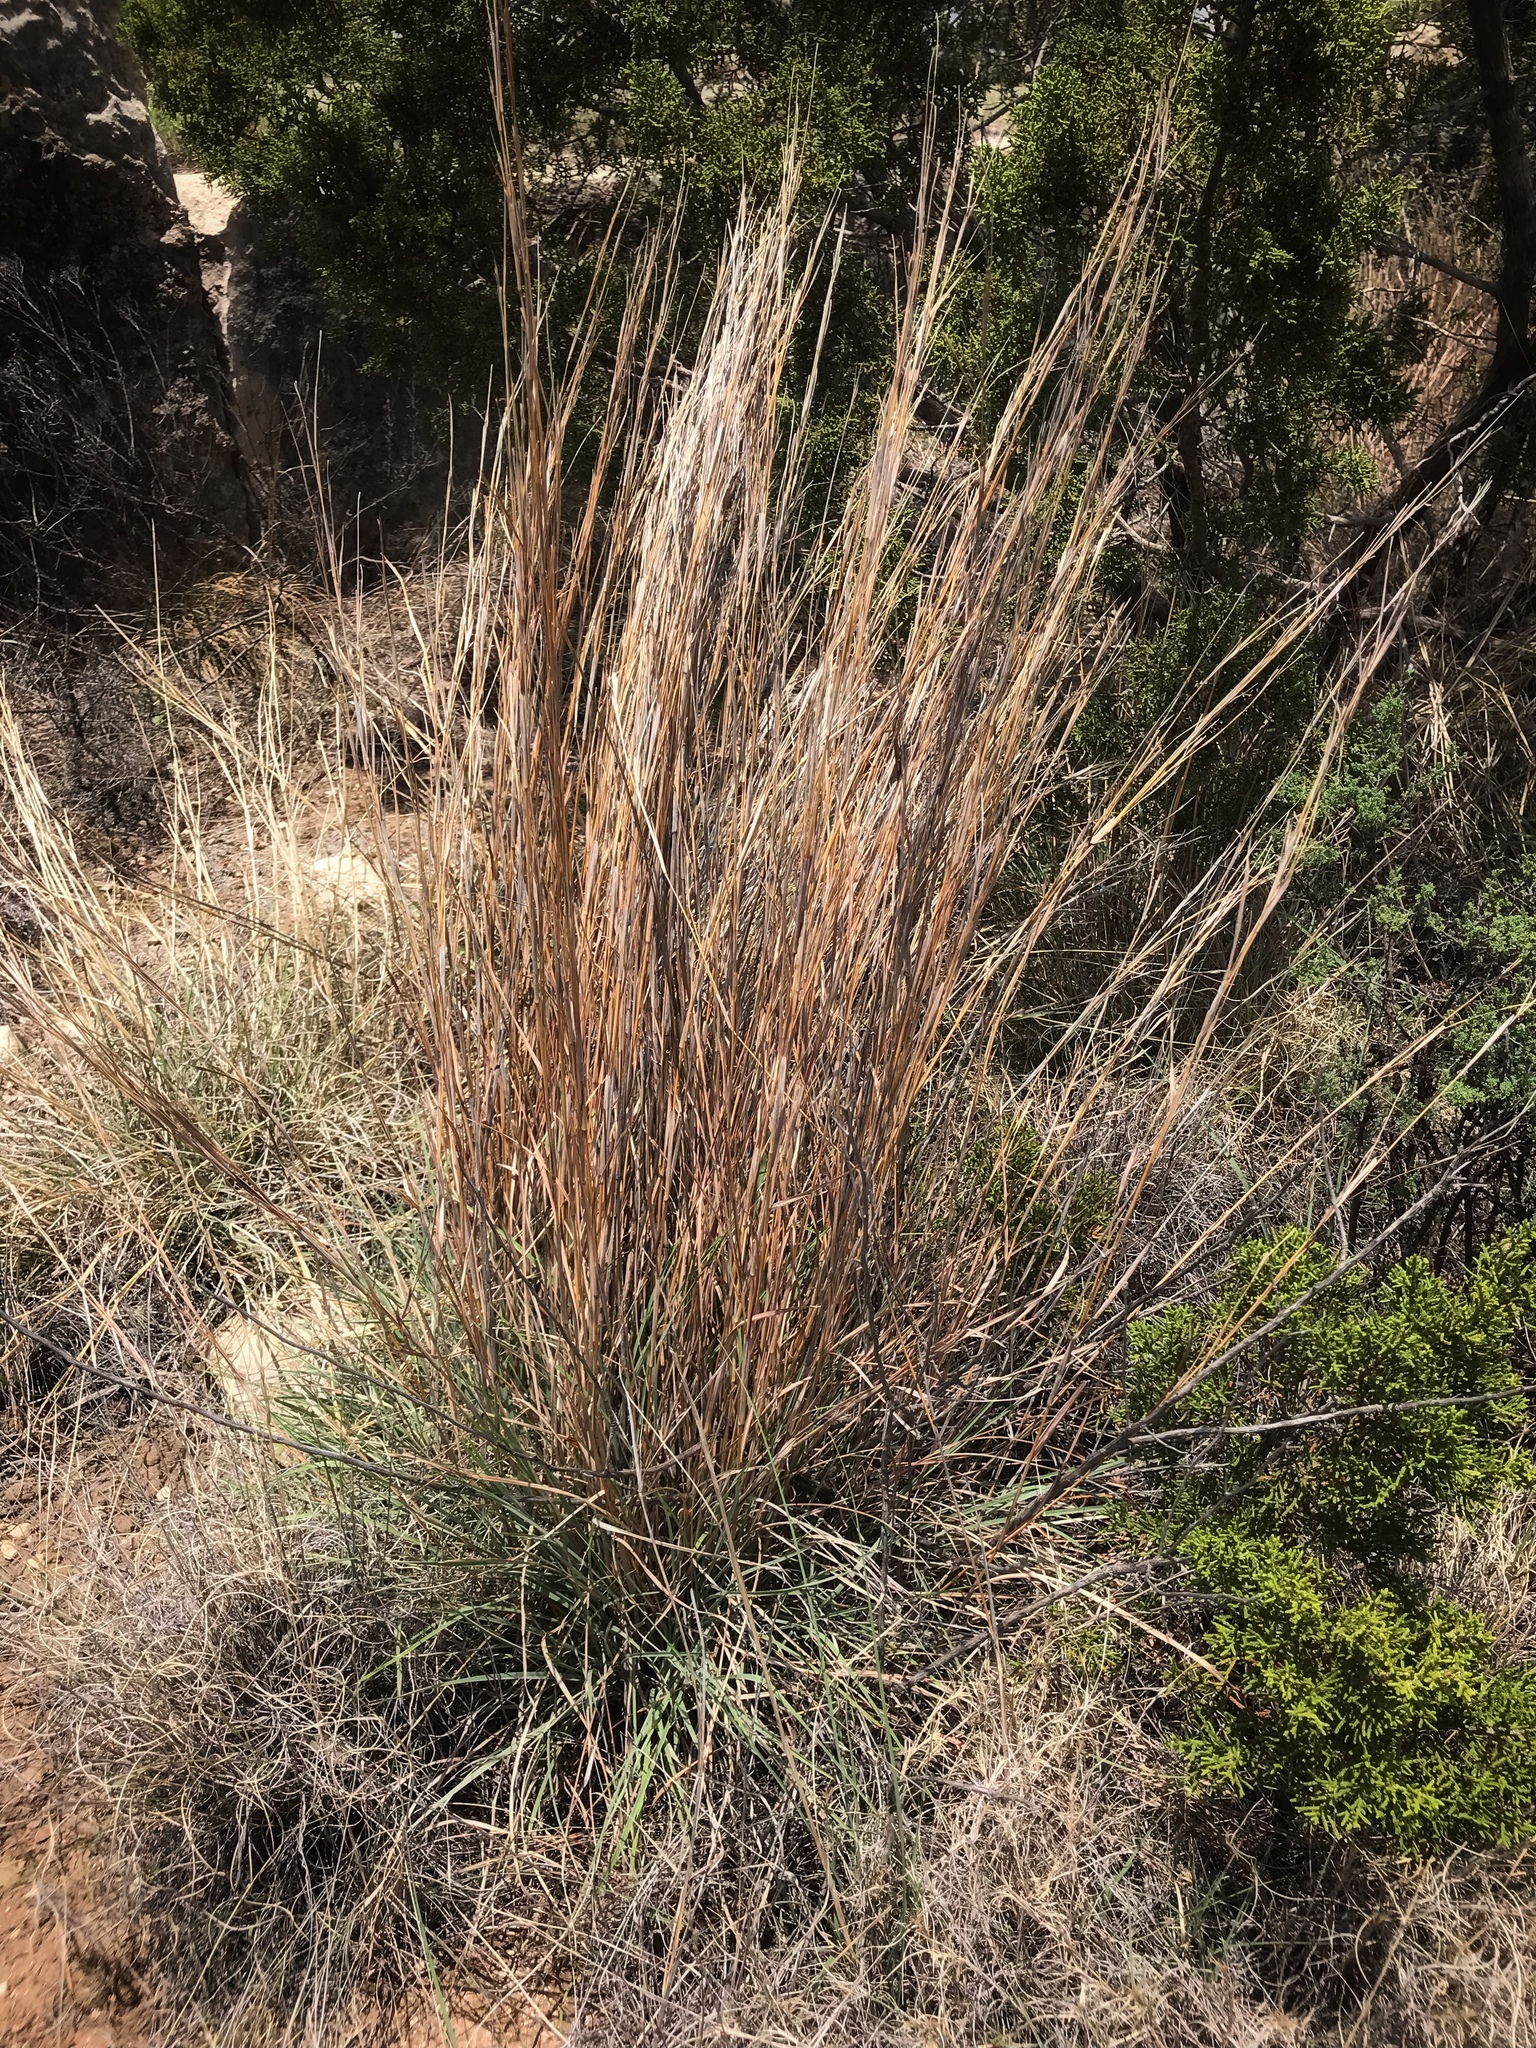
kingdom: Plantae
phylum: Tracheophyta
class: Liliopsida
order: Poales
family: Poaceae
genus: Schizachyrium
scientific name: Schizachyrium scoparium
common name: Little bluestem
